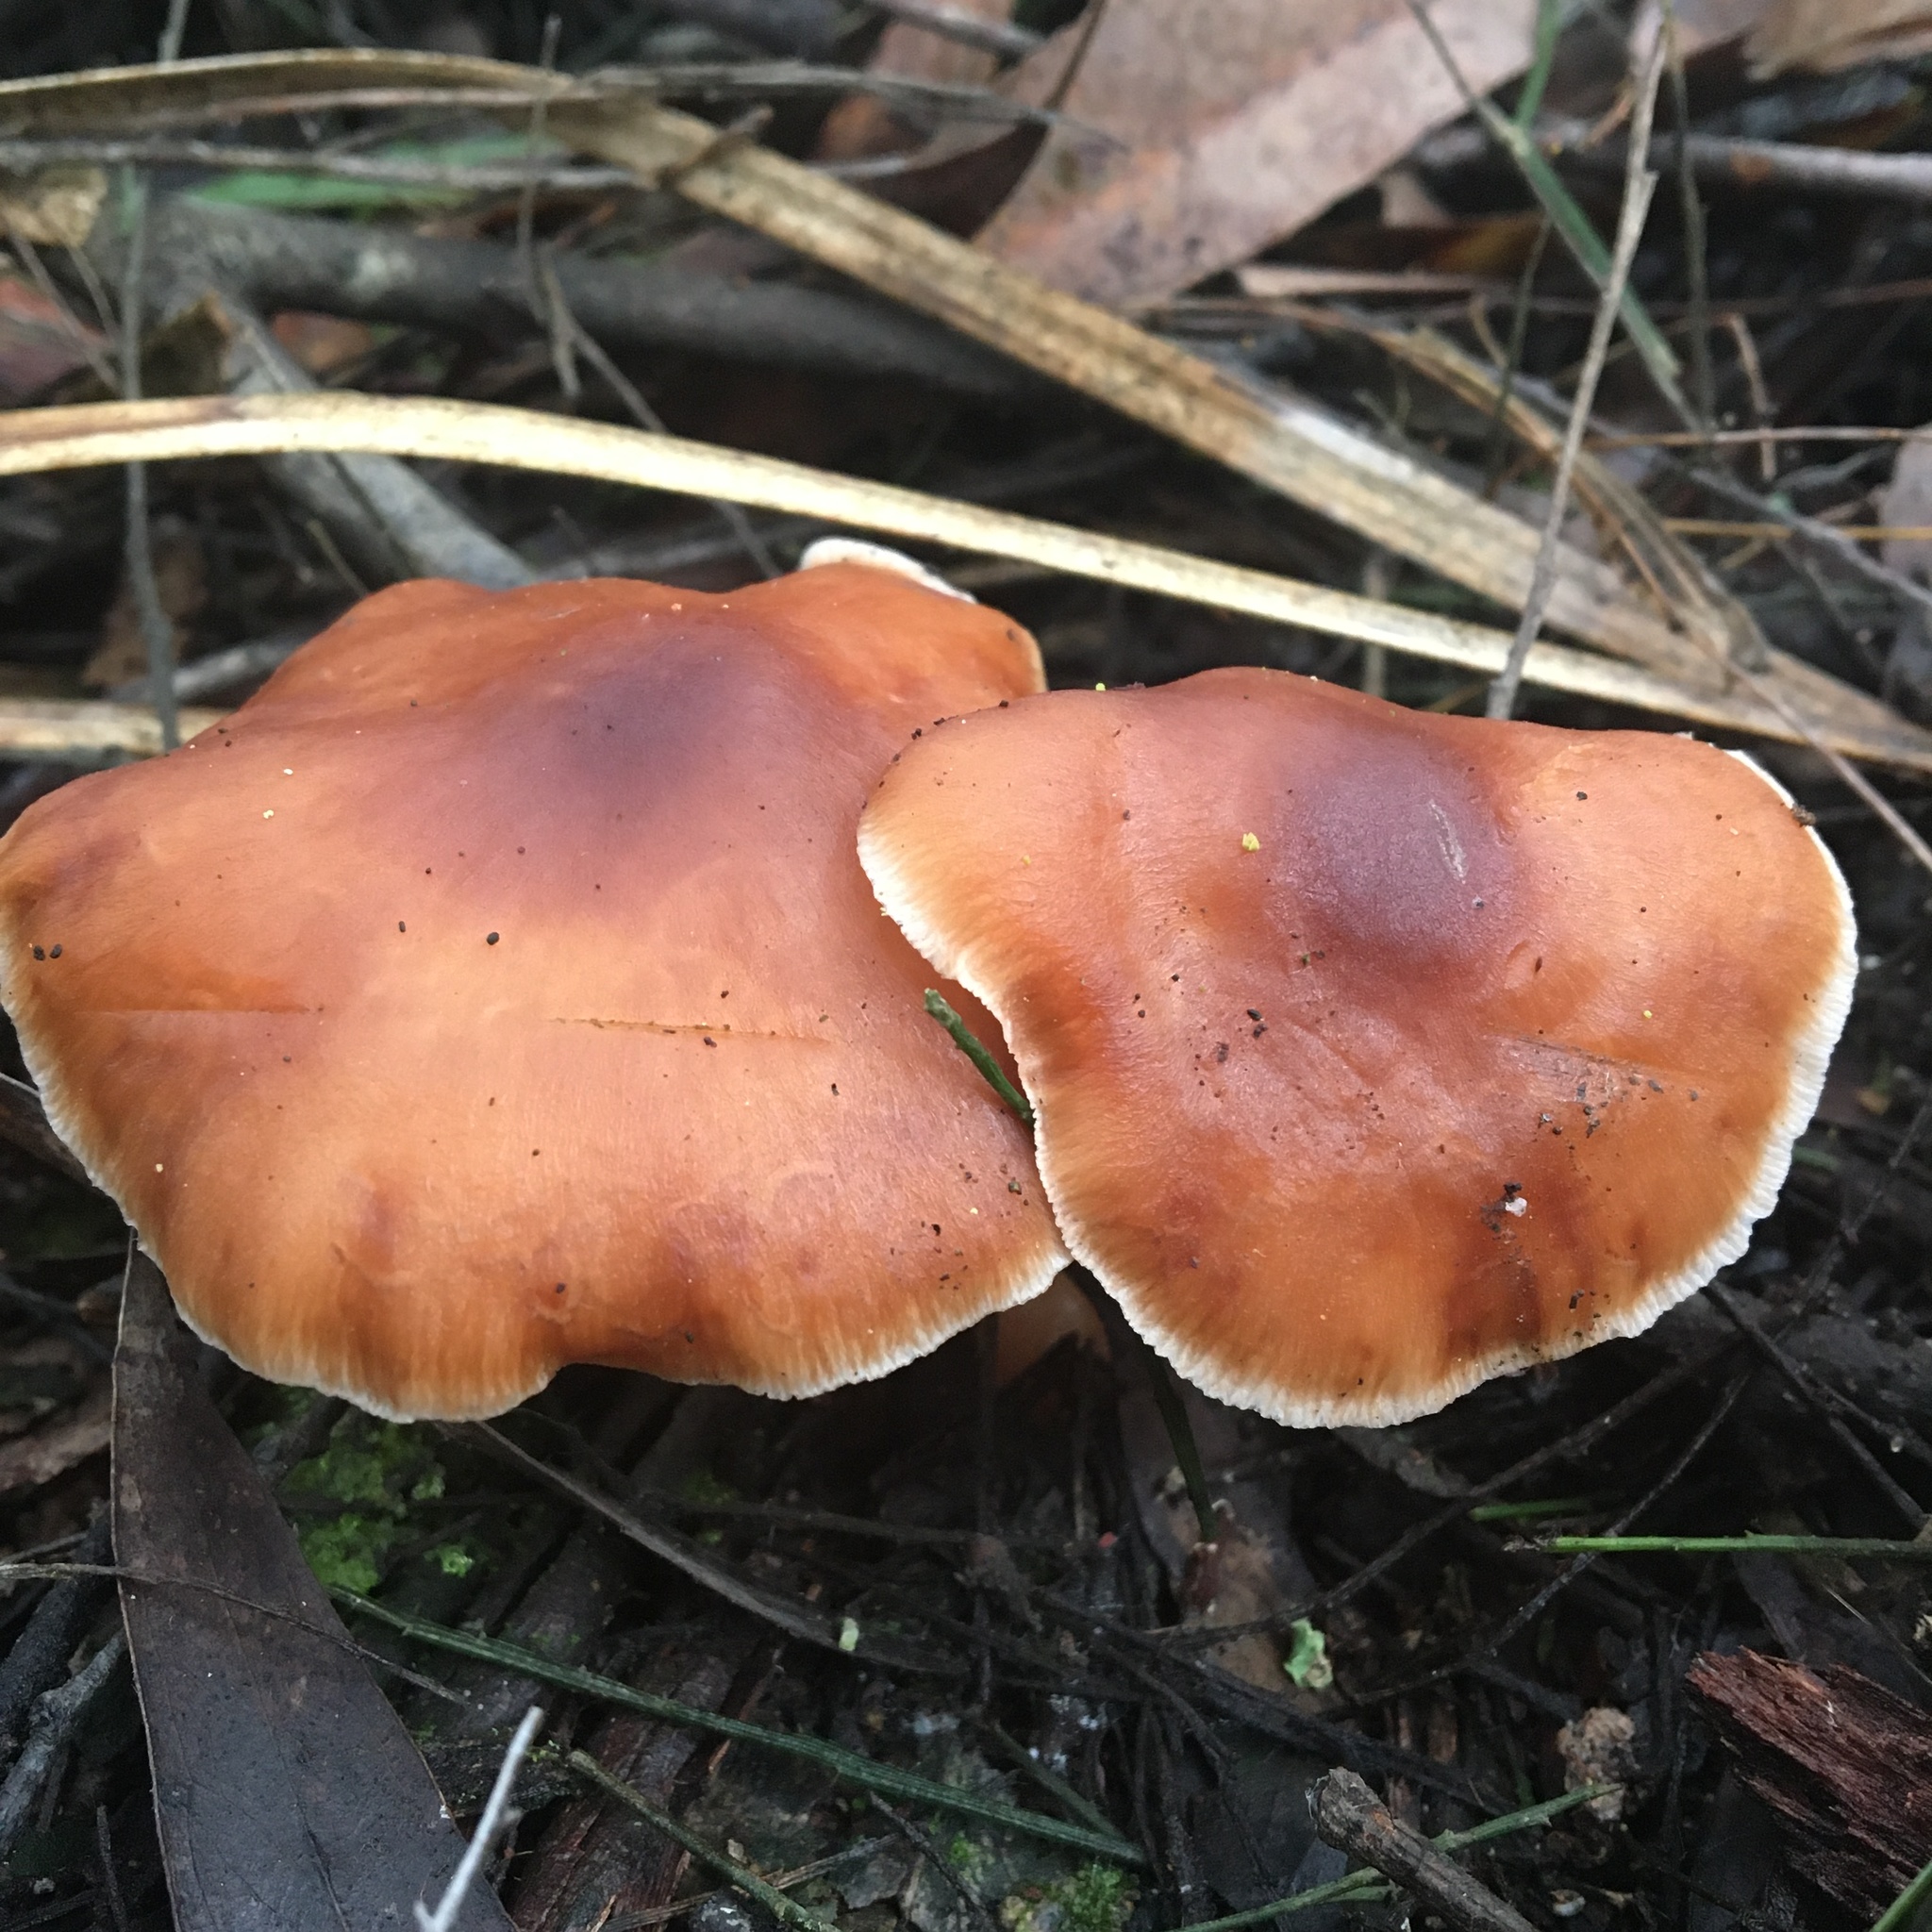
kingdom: Fungi
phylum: Basidiomycota
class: Agaricomycetes
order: Agaricales
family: Omphalotaceae
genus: Rhodocollybia
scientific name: Rhodocollybia butyracea
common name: Butter cap
